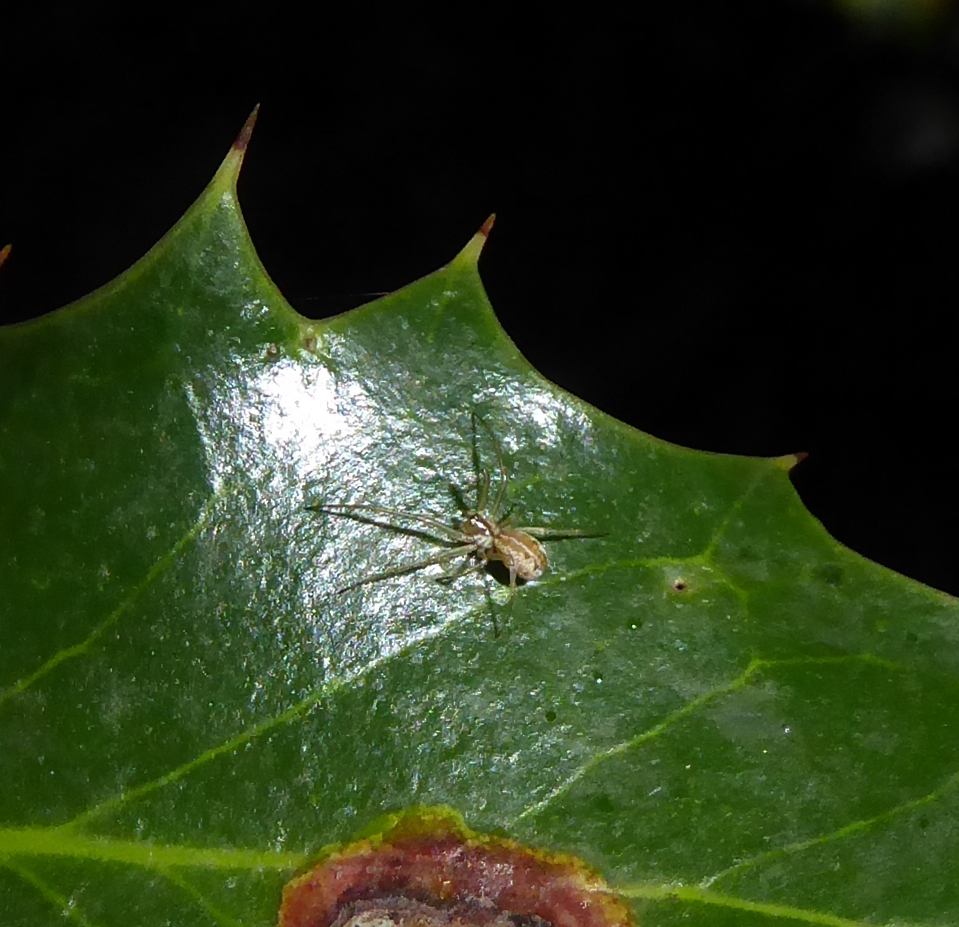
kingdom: Animalia
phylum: Arthropoda
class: Arachnida
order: Araneae
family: Linyphiidae
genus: Neriene
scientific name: Neriene peltata
